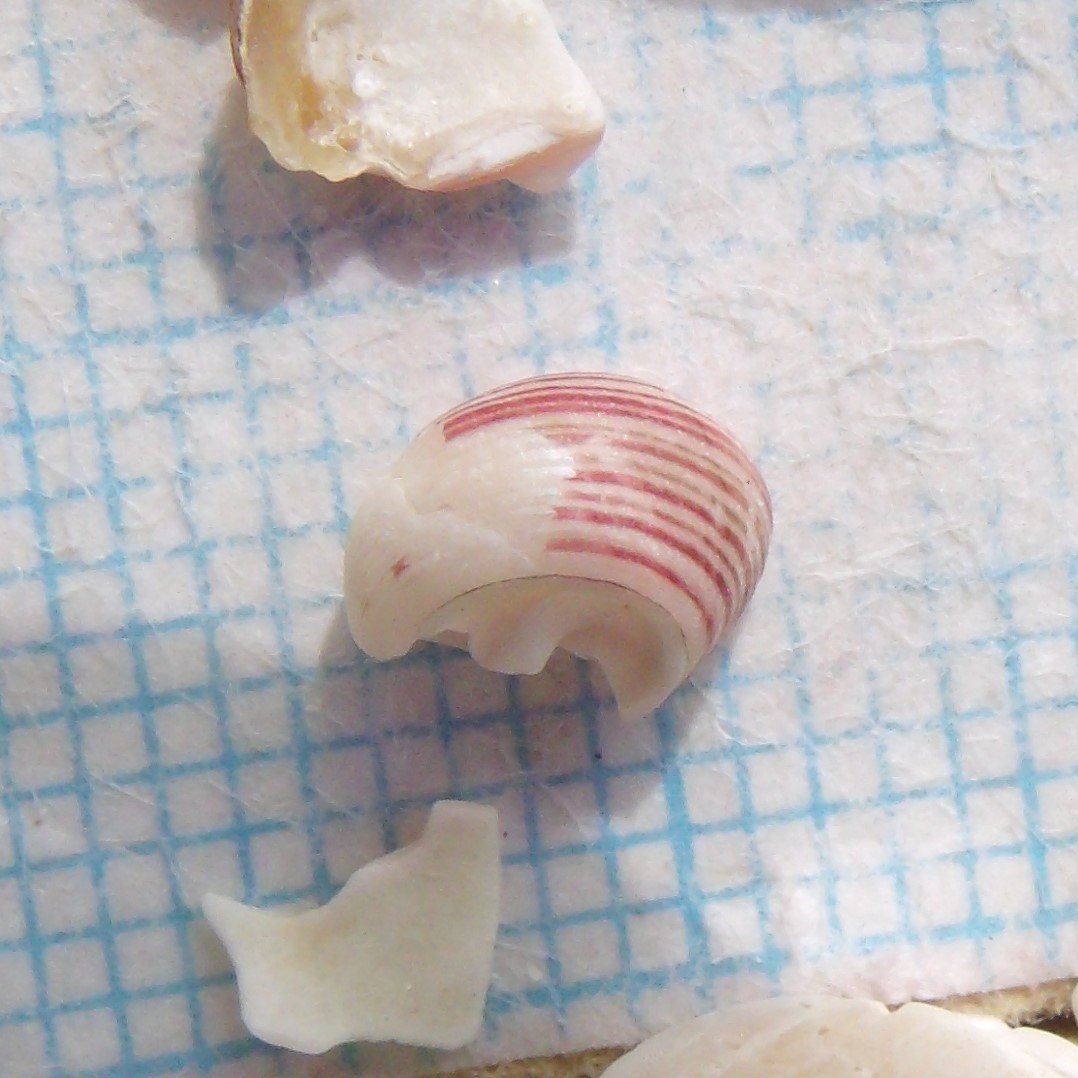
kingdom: Animalia
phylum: Mollusca
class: Gastropoda
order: Trochida
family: Trochidae
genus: Roseaplagis
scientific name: Roseaplagis artizona
